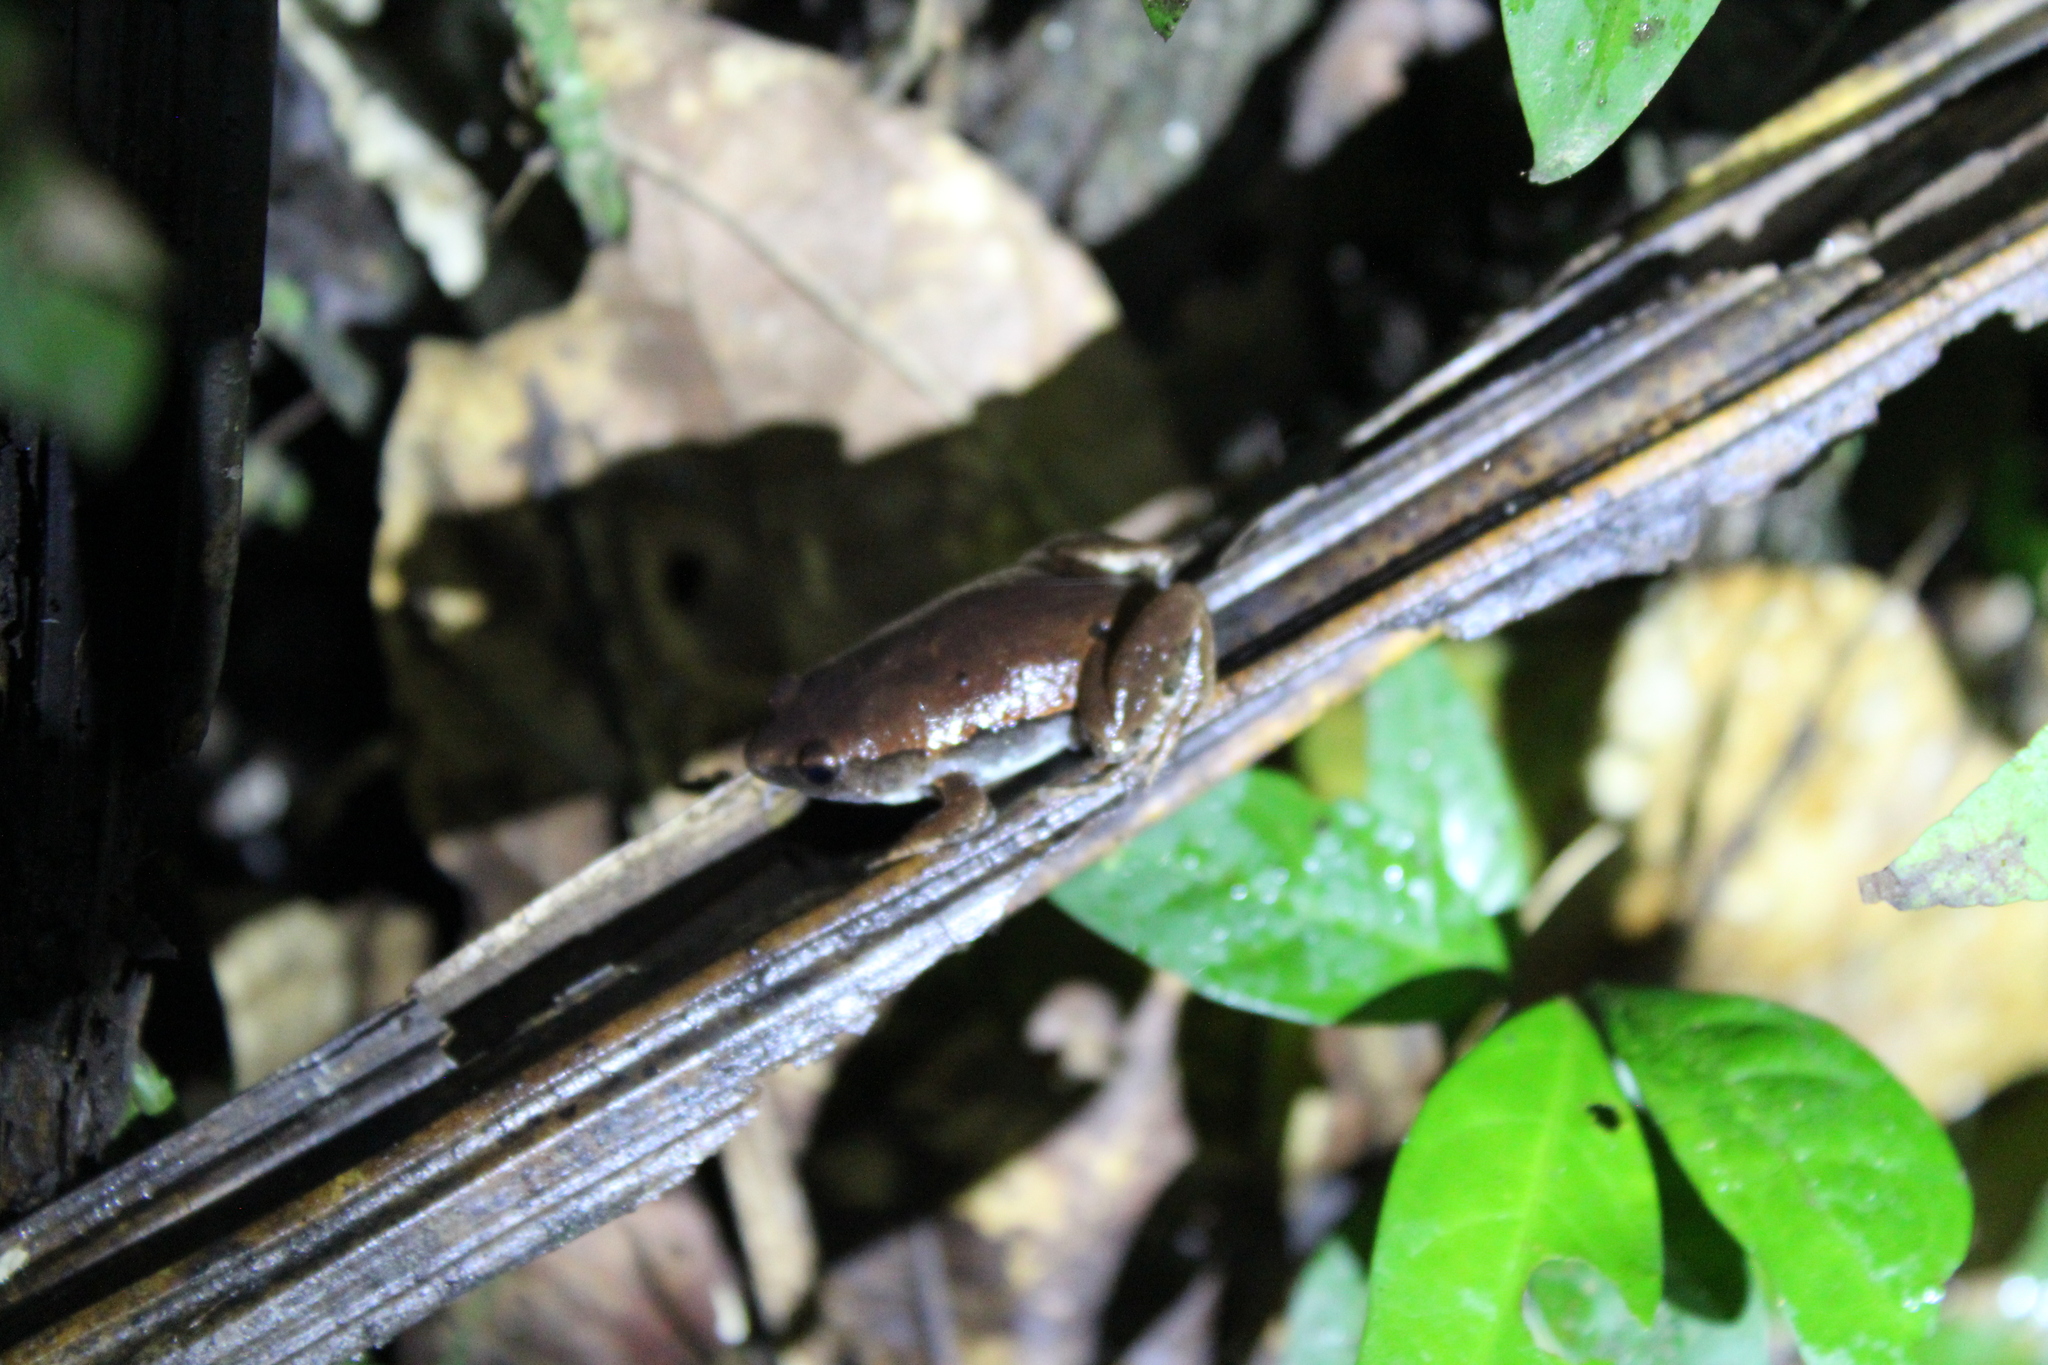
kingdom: Animalia
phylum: Chordata
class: Amphibia
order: Anura
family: Microhylidae
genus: Hamptophryne
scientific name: Hamptophryne boliviana
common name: Bolivian bleating frog
